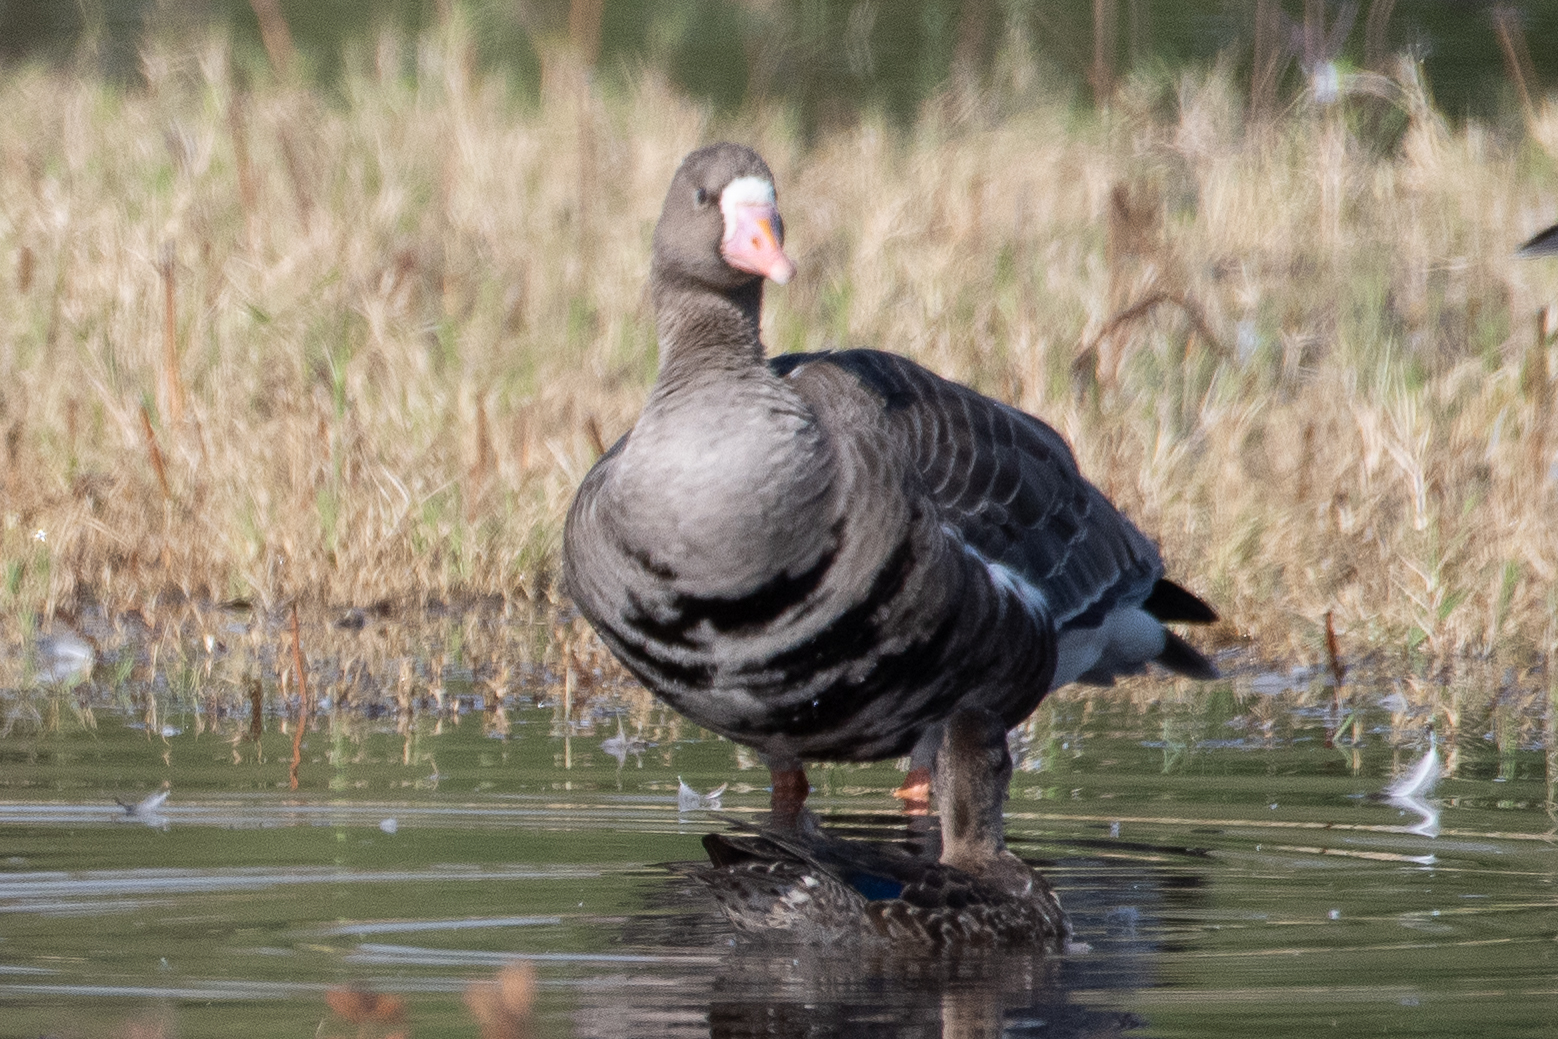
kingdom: Animalia
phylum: Chordata
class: Aves
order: Anseriformes
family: Anatidae
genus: Anser
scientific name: Anser albifrons
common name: Greater white-fronted goose
